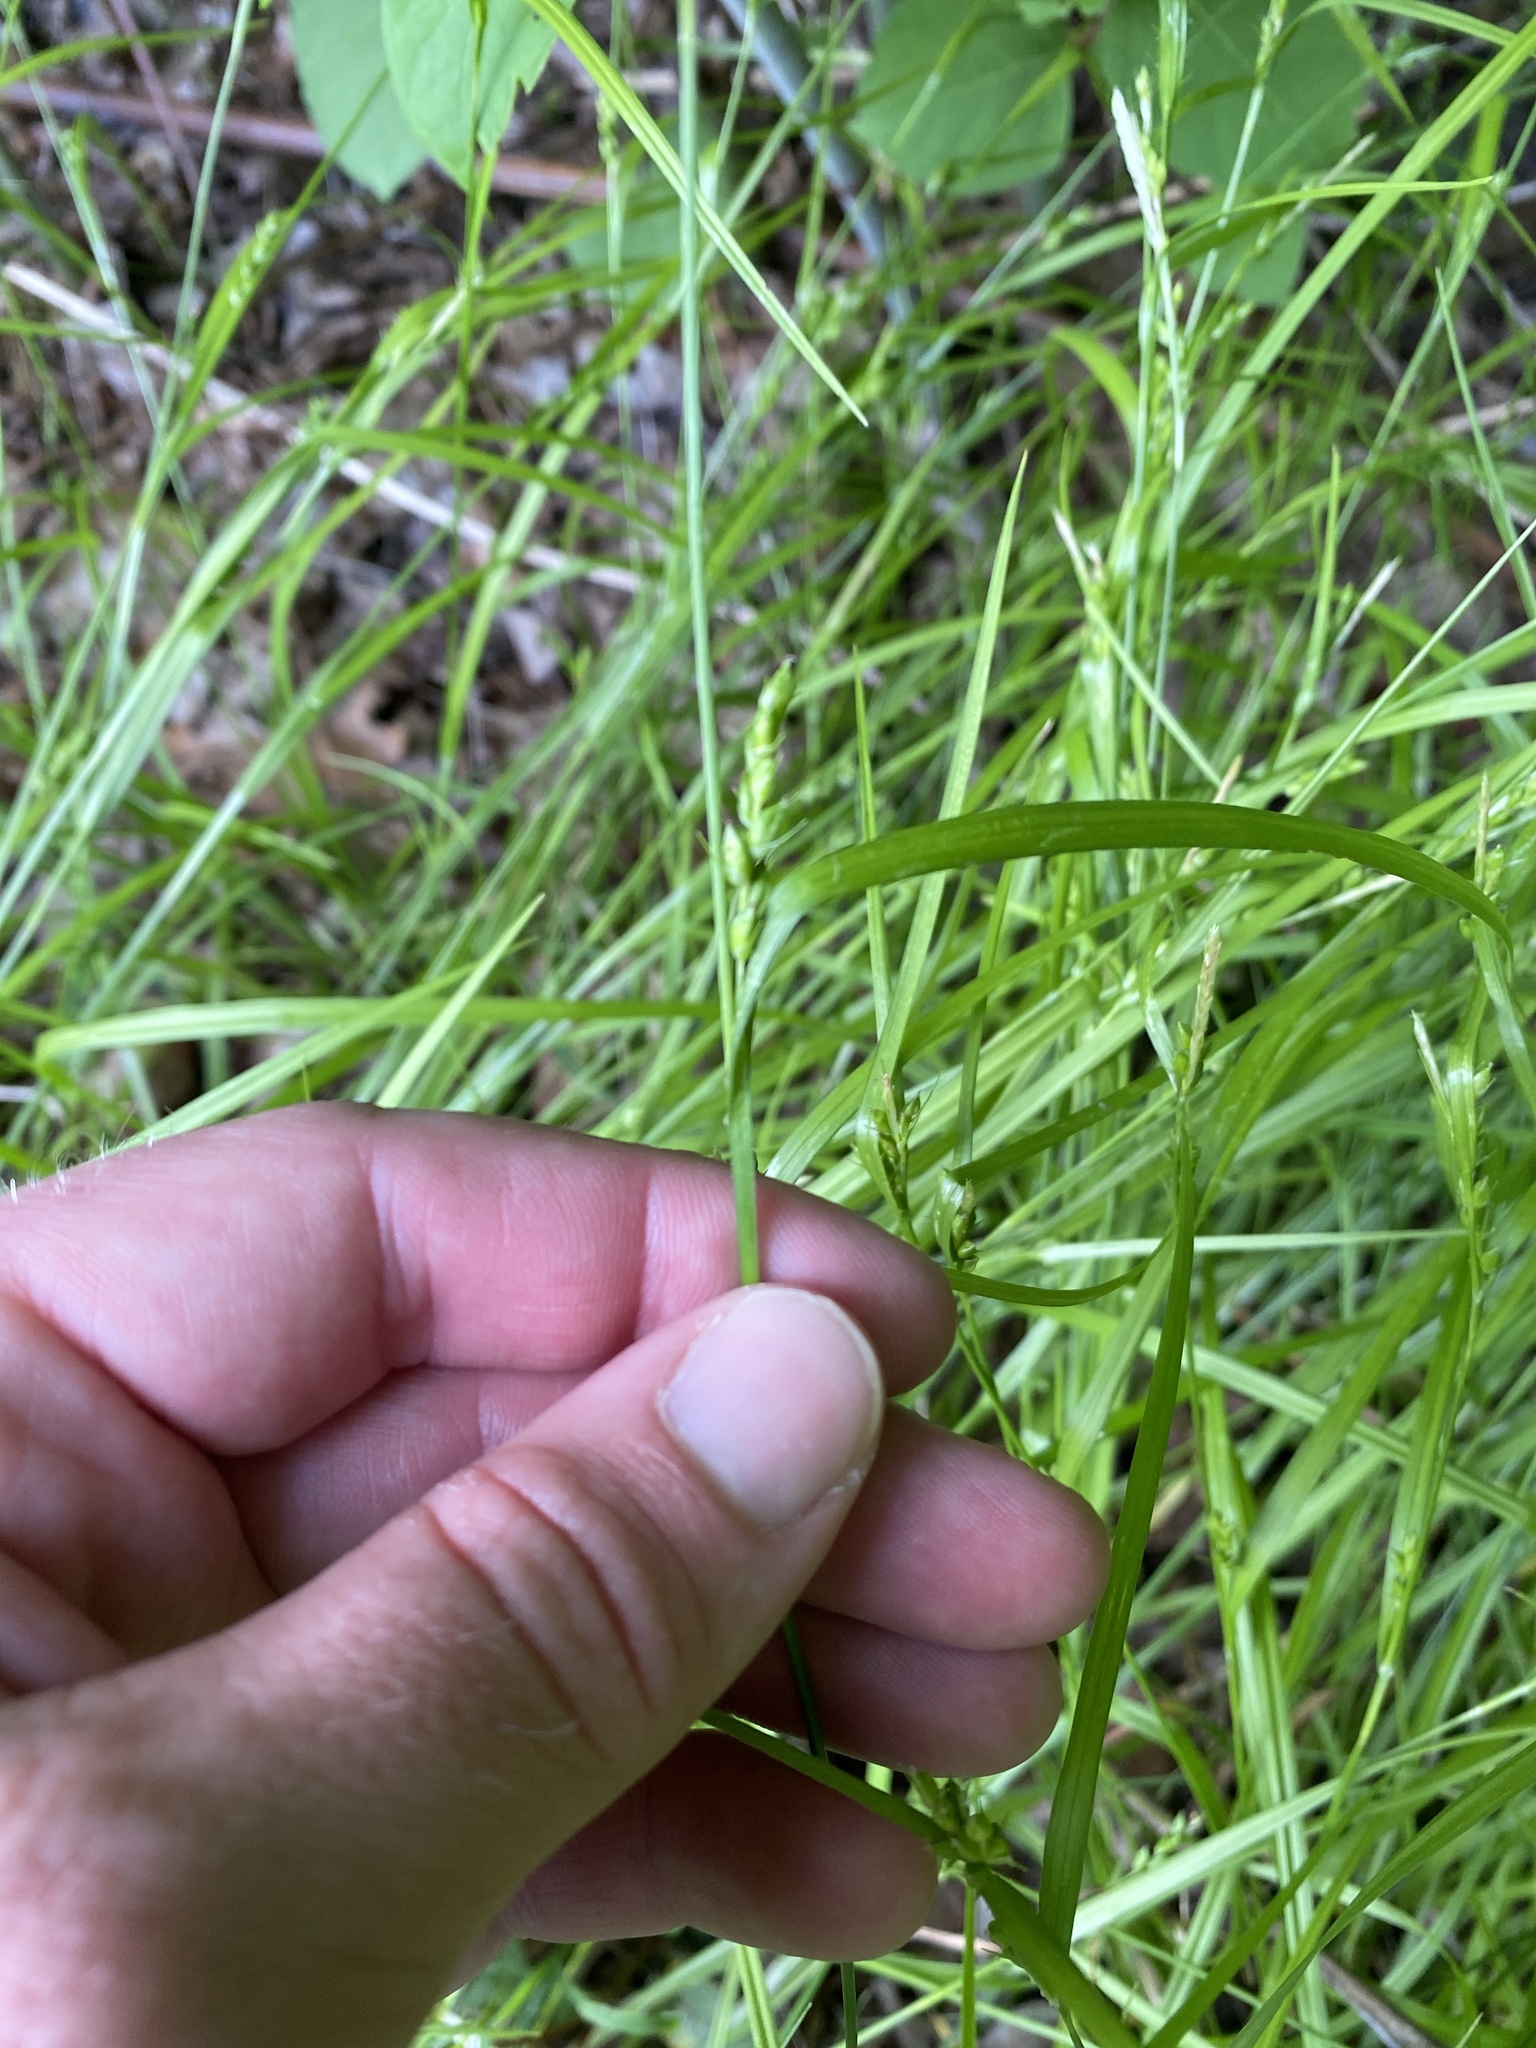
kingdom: Plantae
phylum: Tracheophyta
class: Liliopsida
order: Poales
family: Cyperaceae
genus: Carex
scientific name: Carex blanda
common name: Bland sedge
